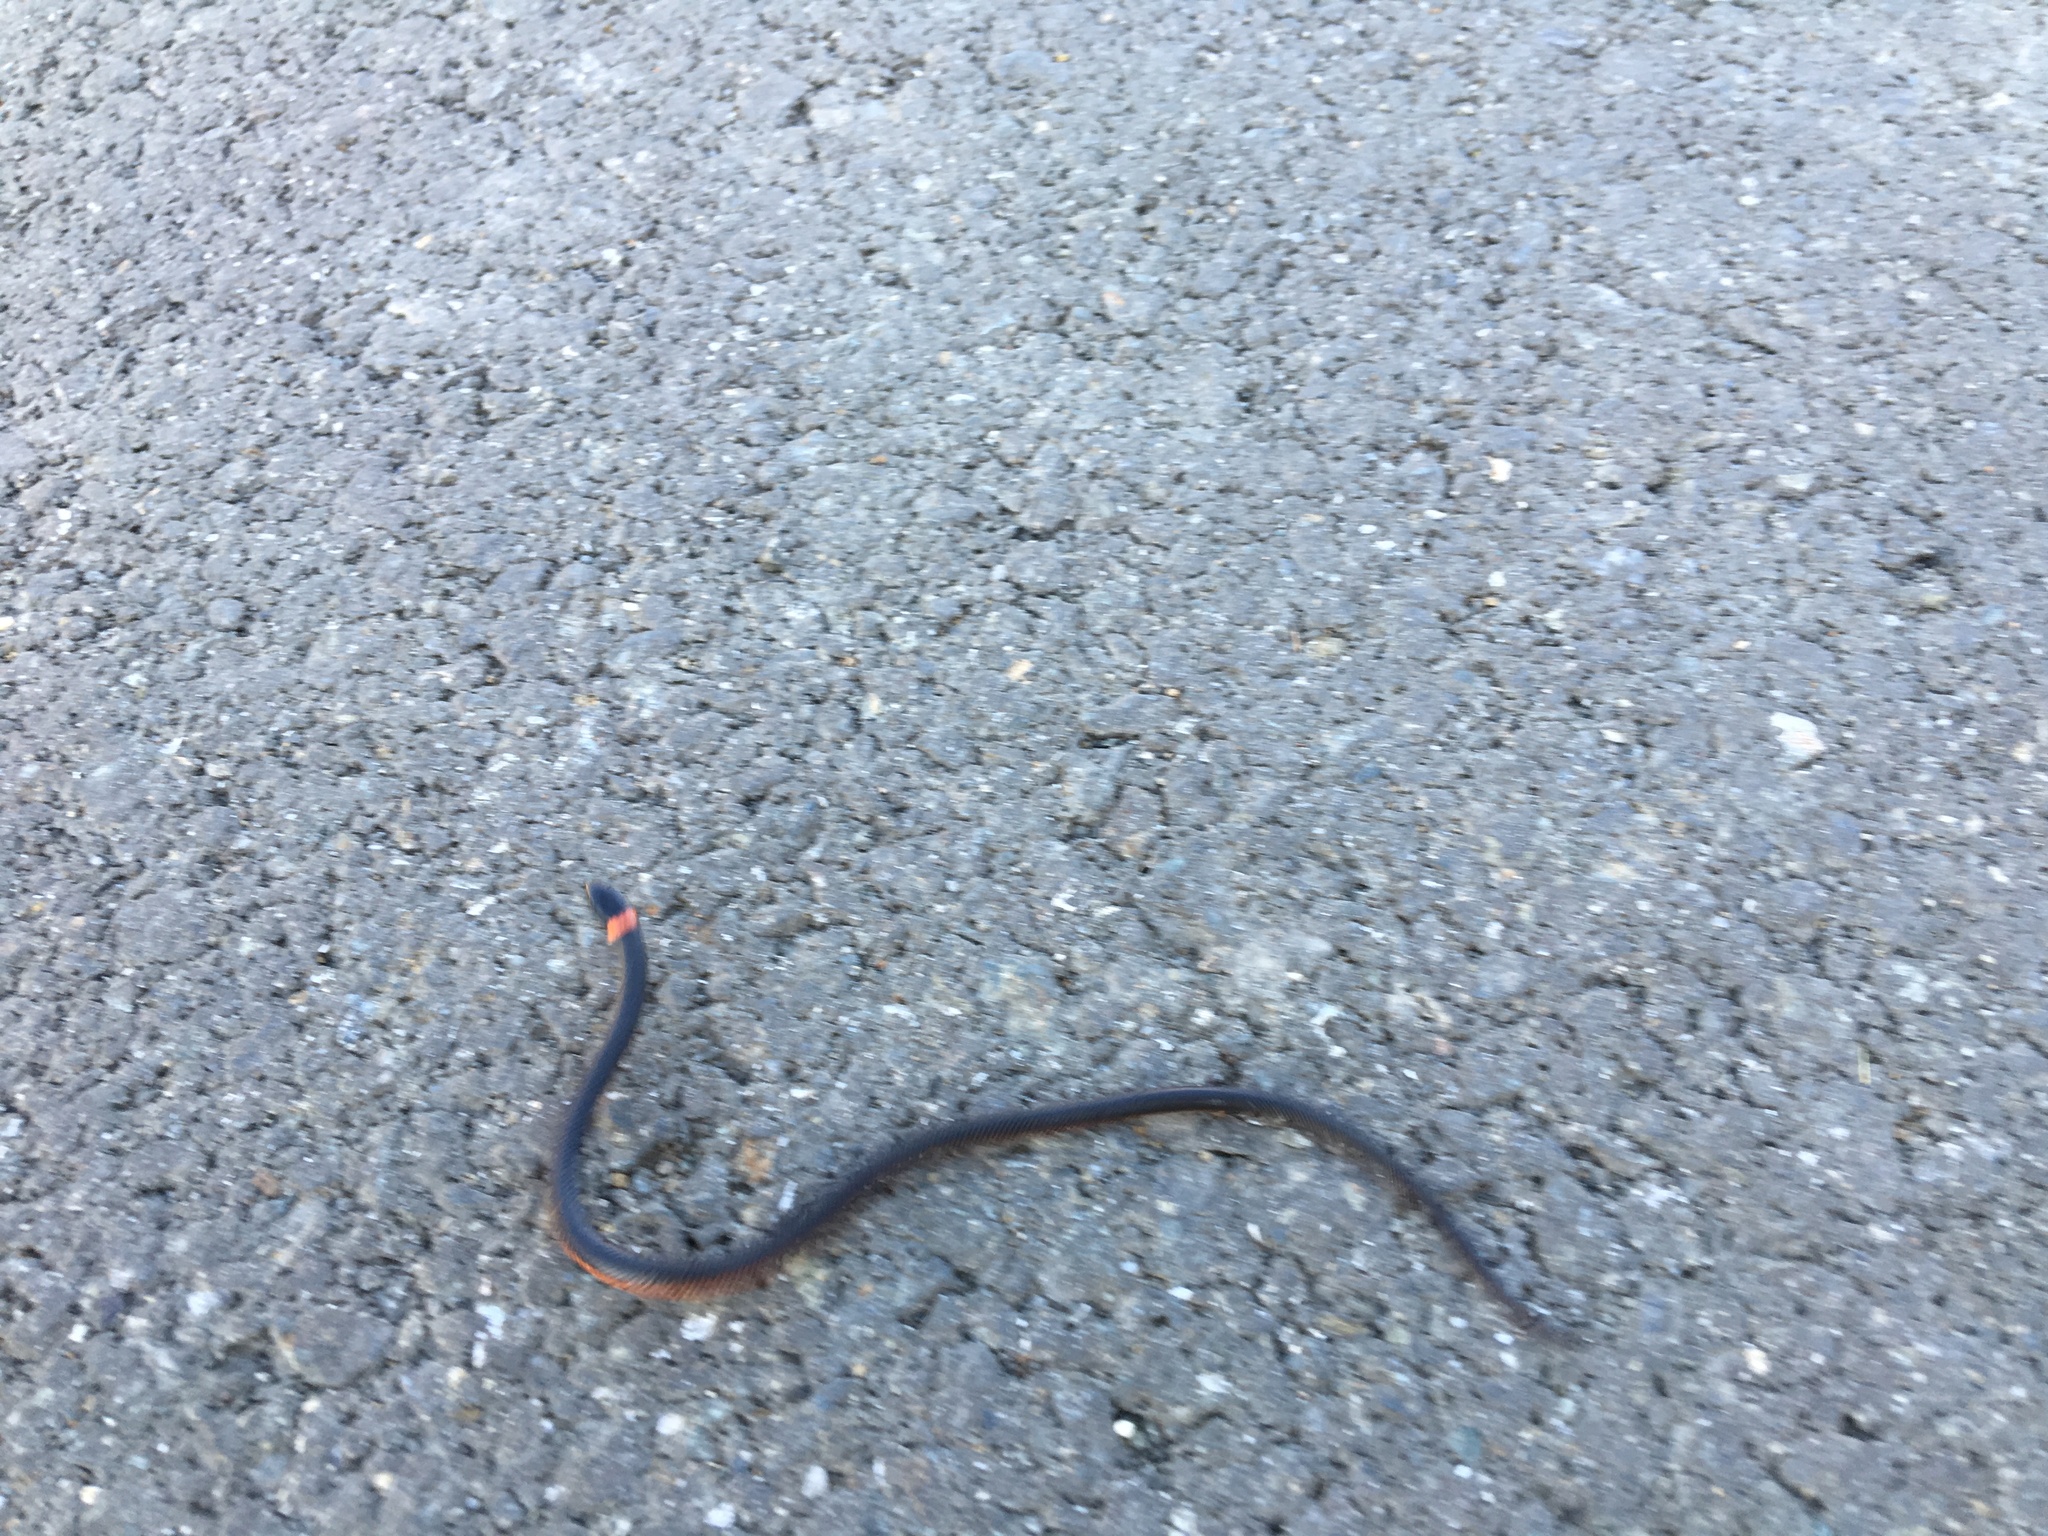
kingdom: Animalia
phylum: Chordata
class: Squamata
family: Colubridae
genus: Diadophis
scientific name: Diadophis punctatus
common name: Ringneck snake
